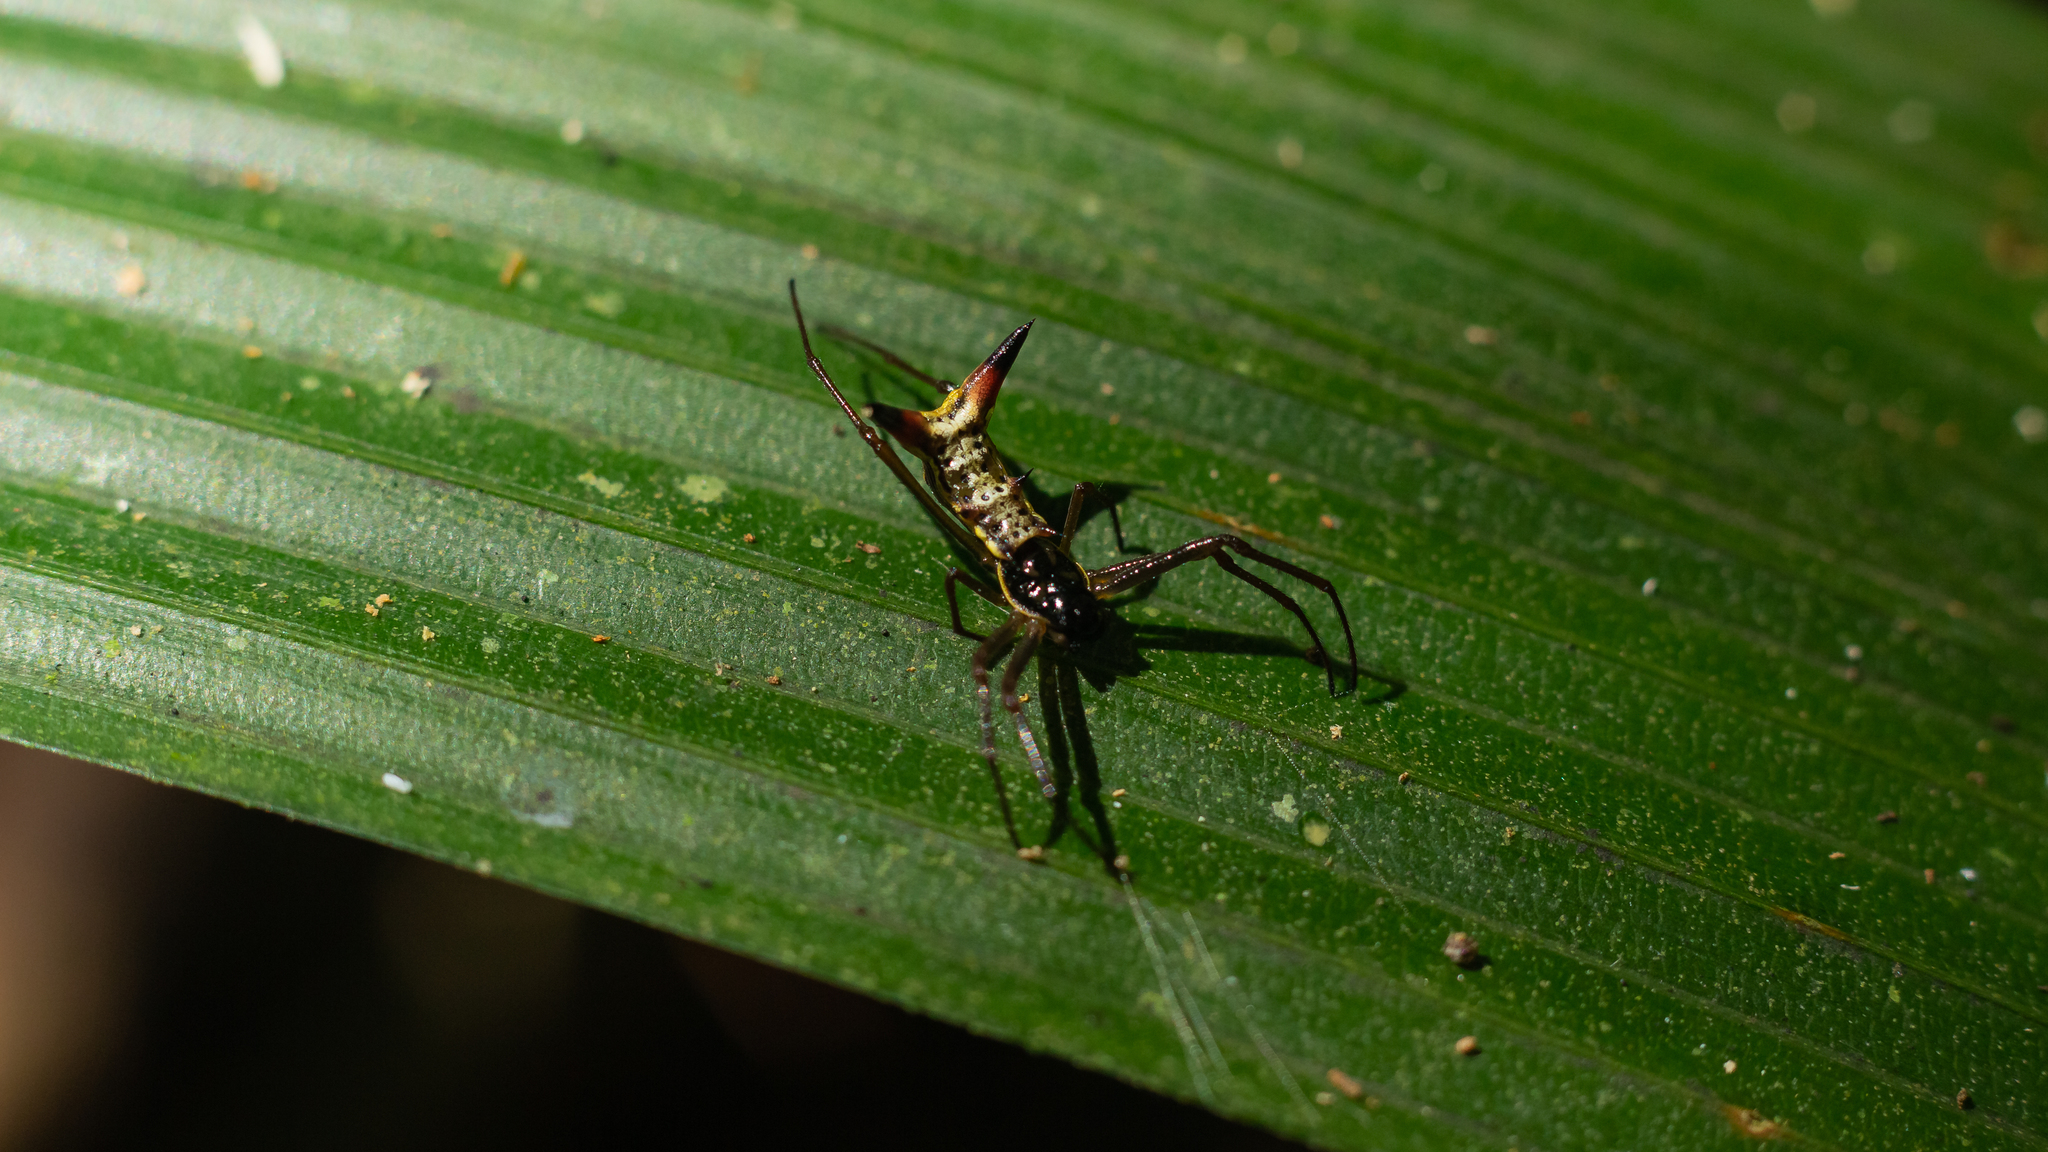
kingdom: Animalia
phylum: Arthropoda
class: Arachnida
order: Araneae
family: Araneidae
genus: Micrathena
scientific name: Micrathena sanctispiritus
